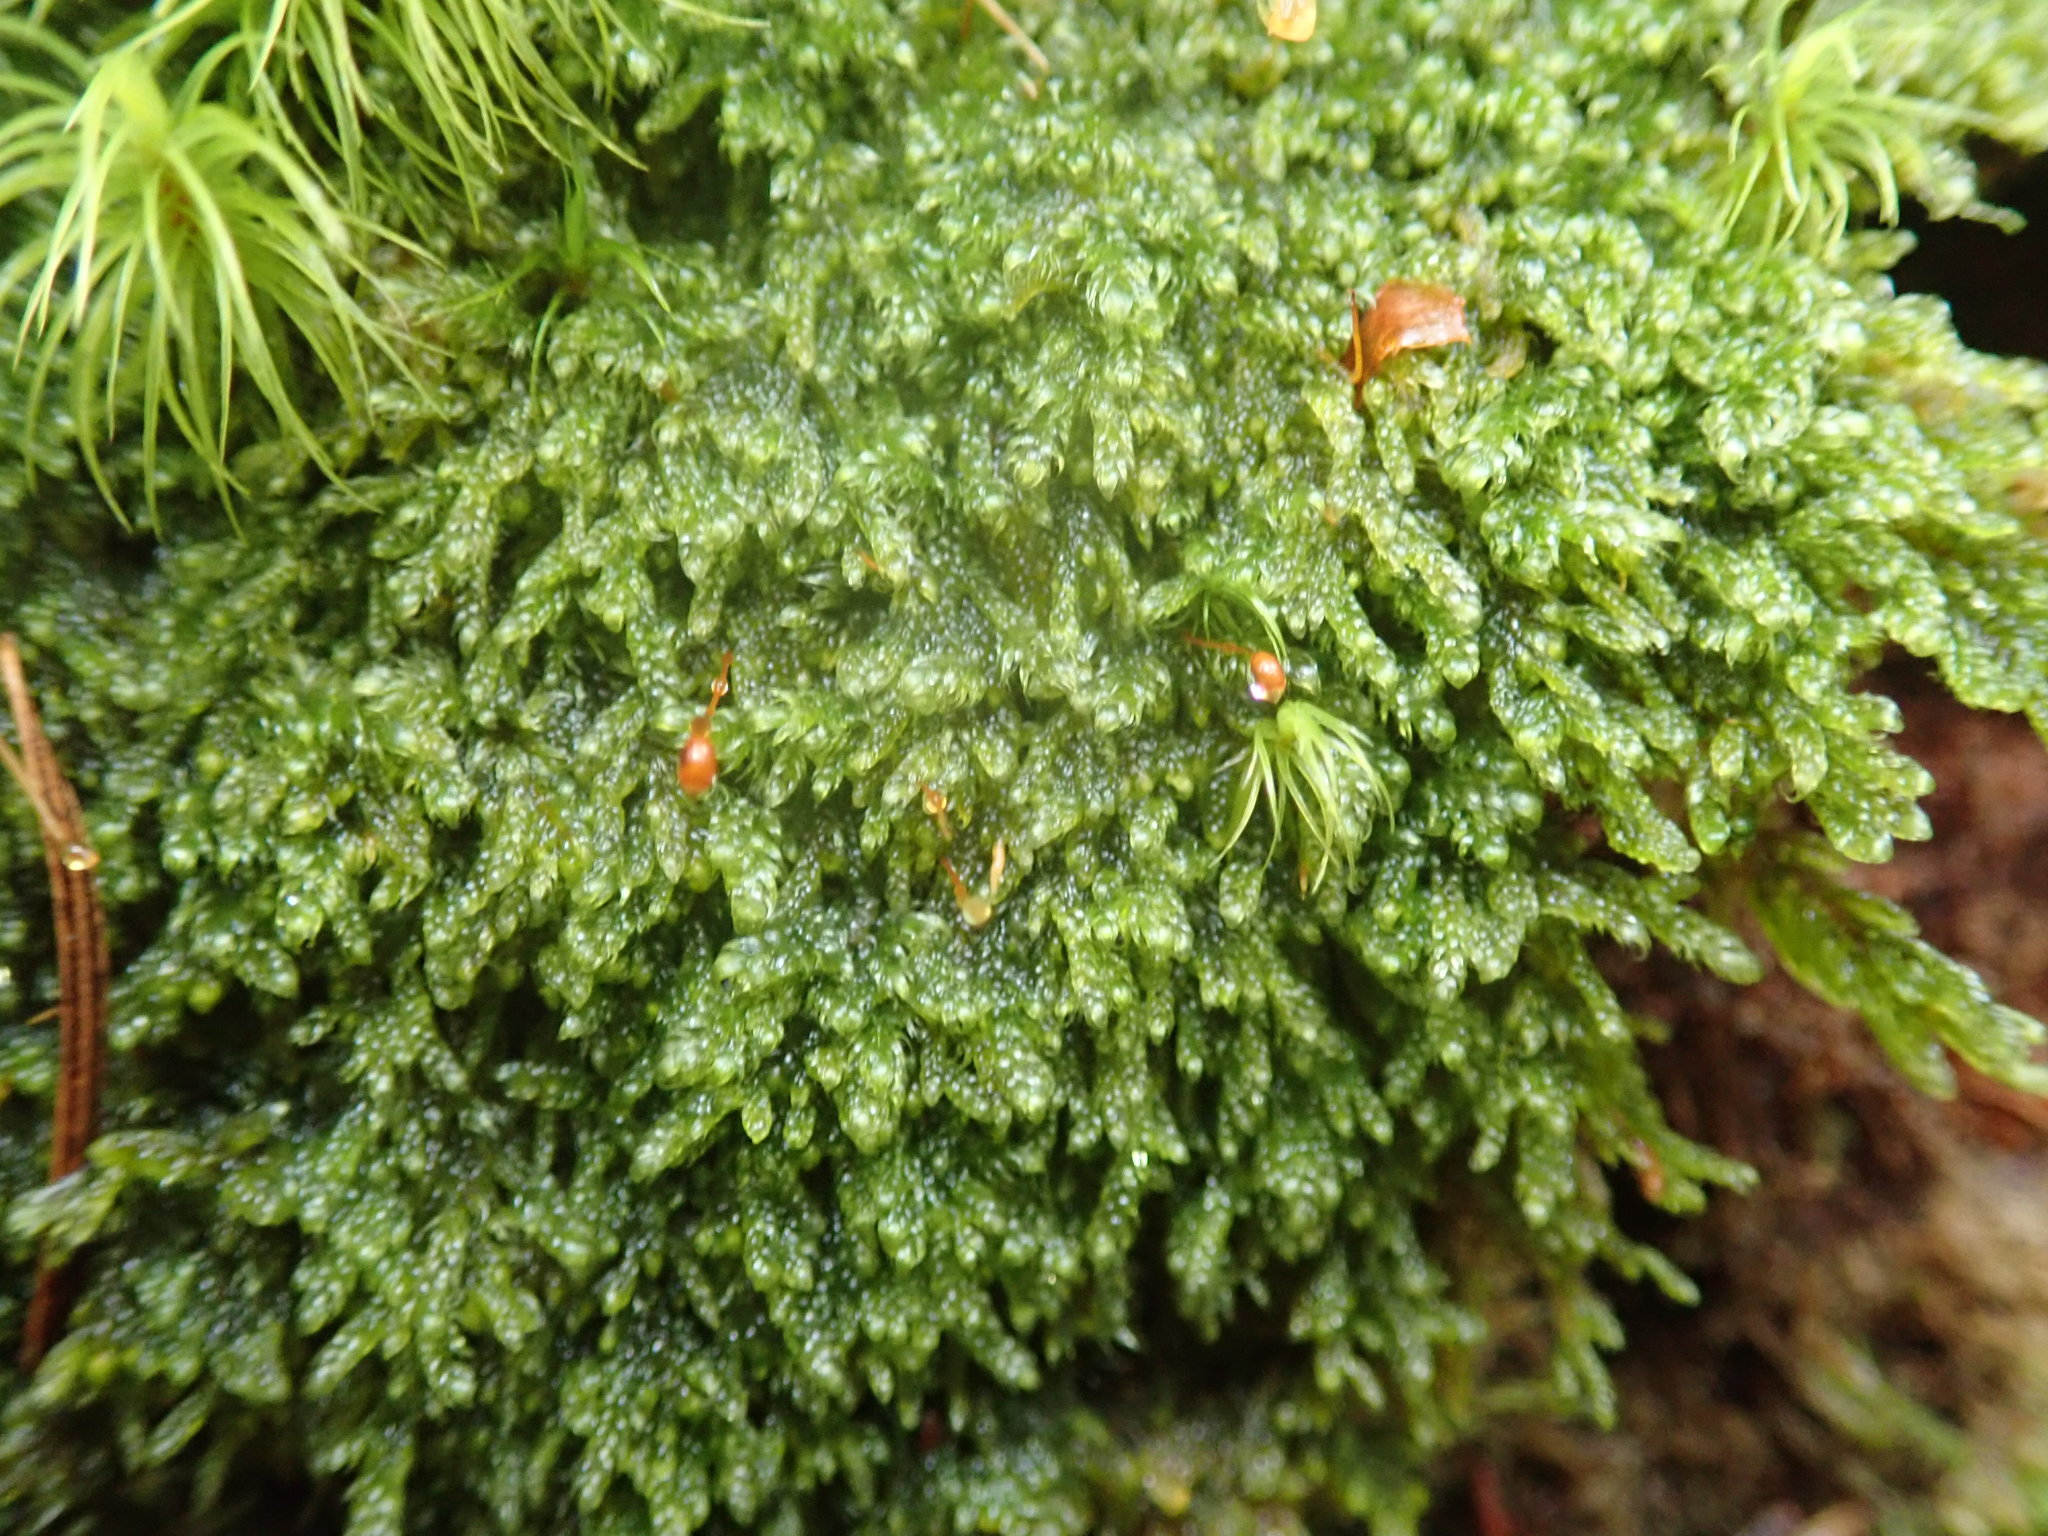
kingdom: Plantae
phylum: Bryophyta
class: Bryopsida
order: Hypnales
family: Pylaisiadelphaceae
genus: Trochophyllohypnum
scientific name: Trochophyllohypnum circinale
